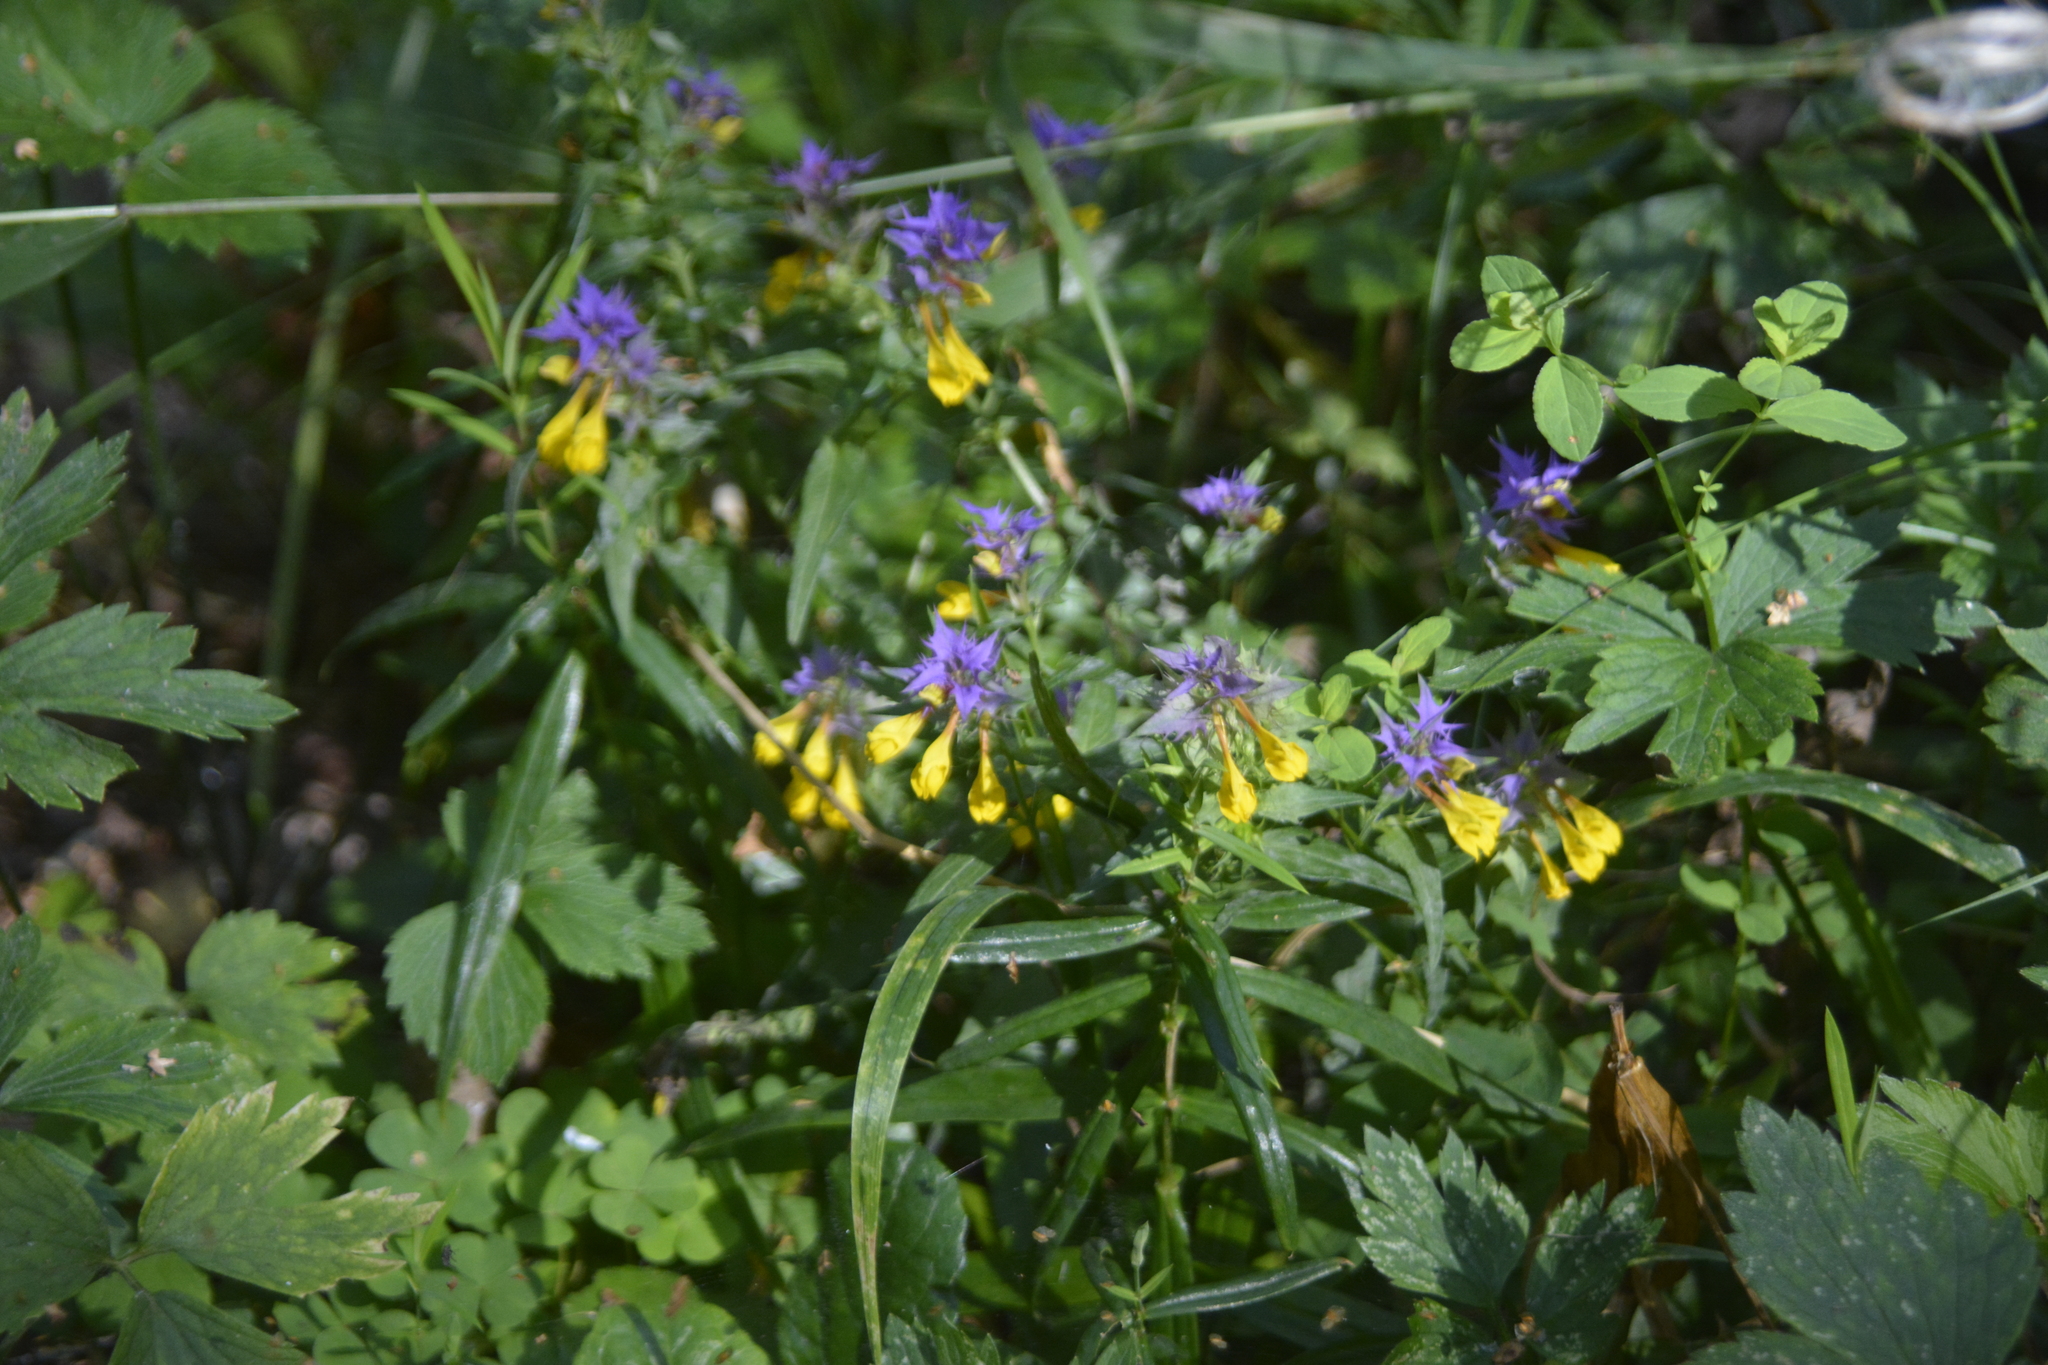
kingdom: Plantae
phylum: Tracheophyta
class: Magnoliopsida
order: Lamiales
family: Orobanchaceae
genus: Melampyrum
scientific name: Melampyrum nemorosum
